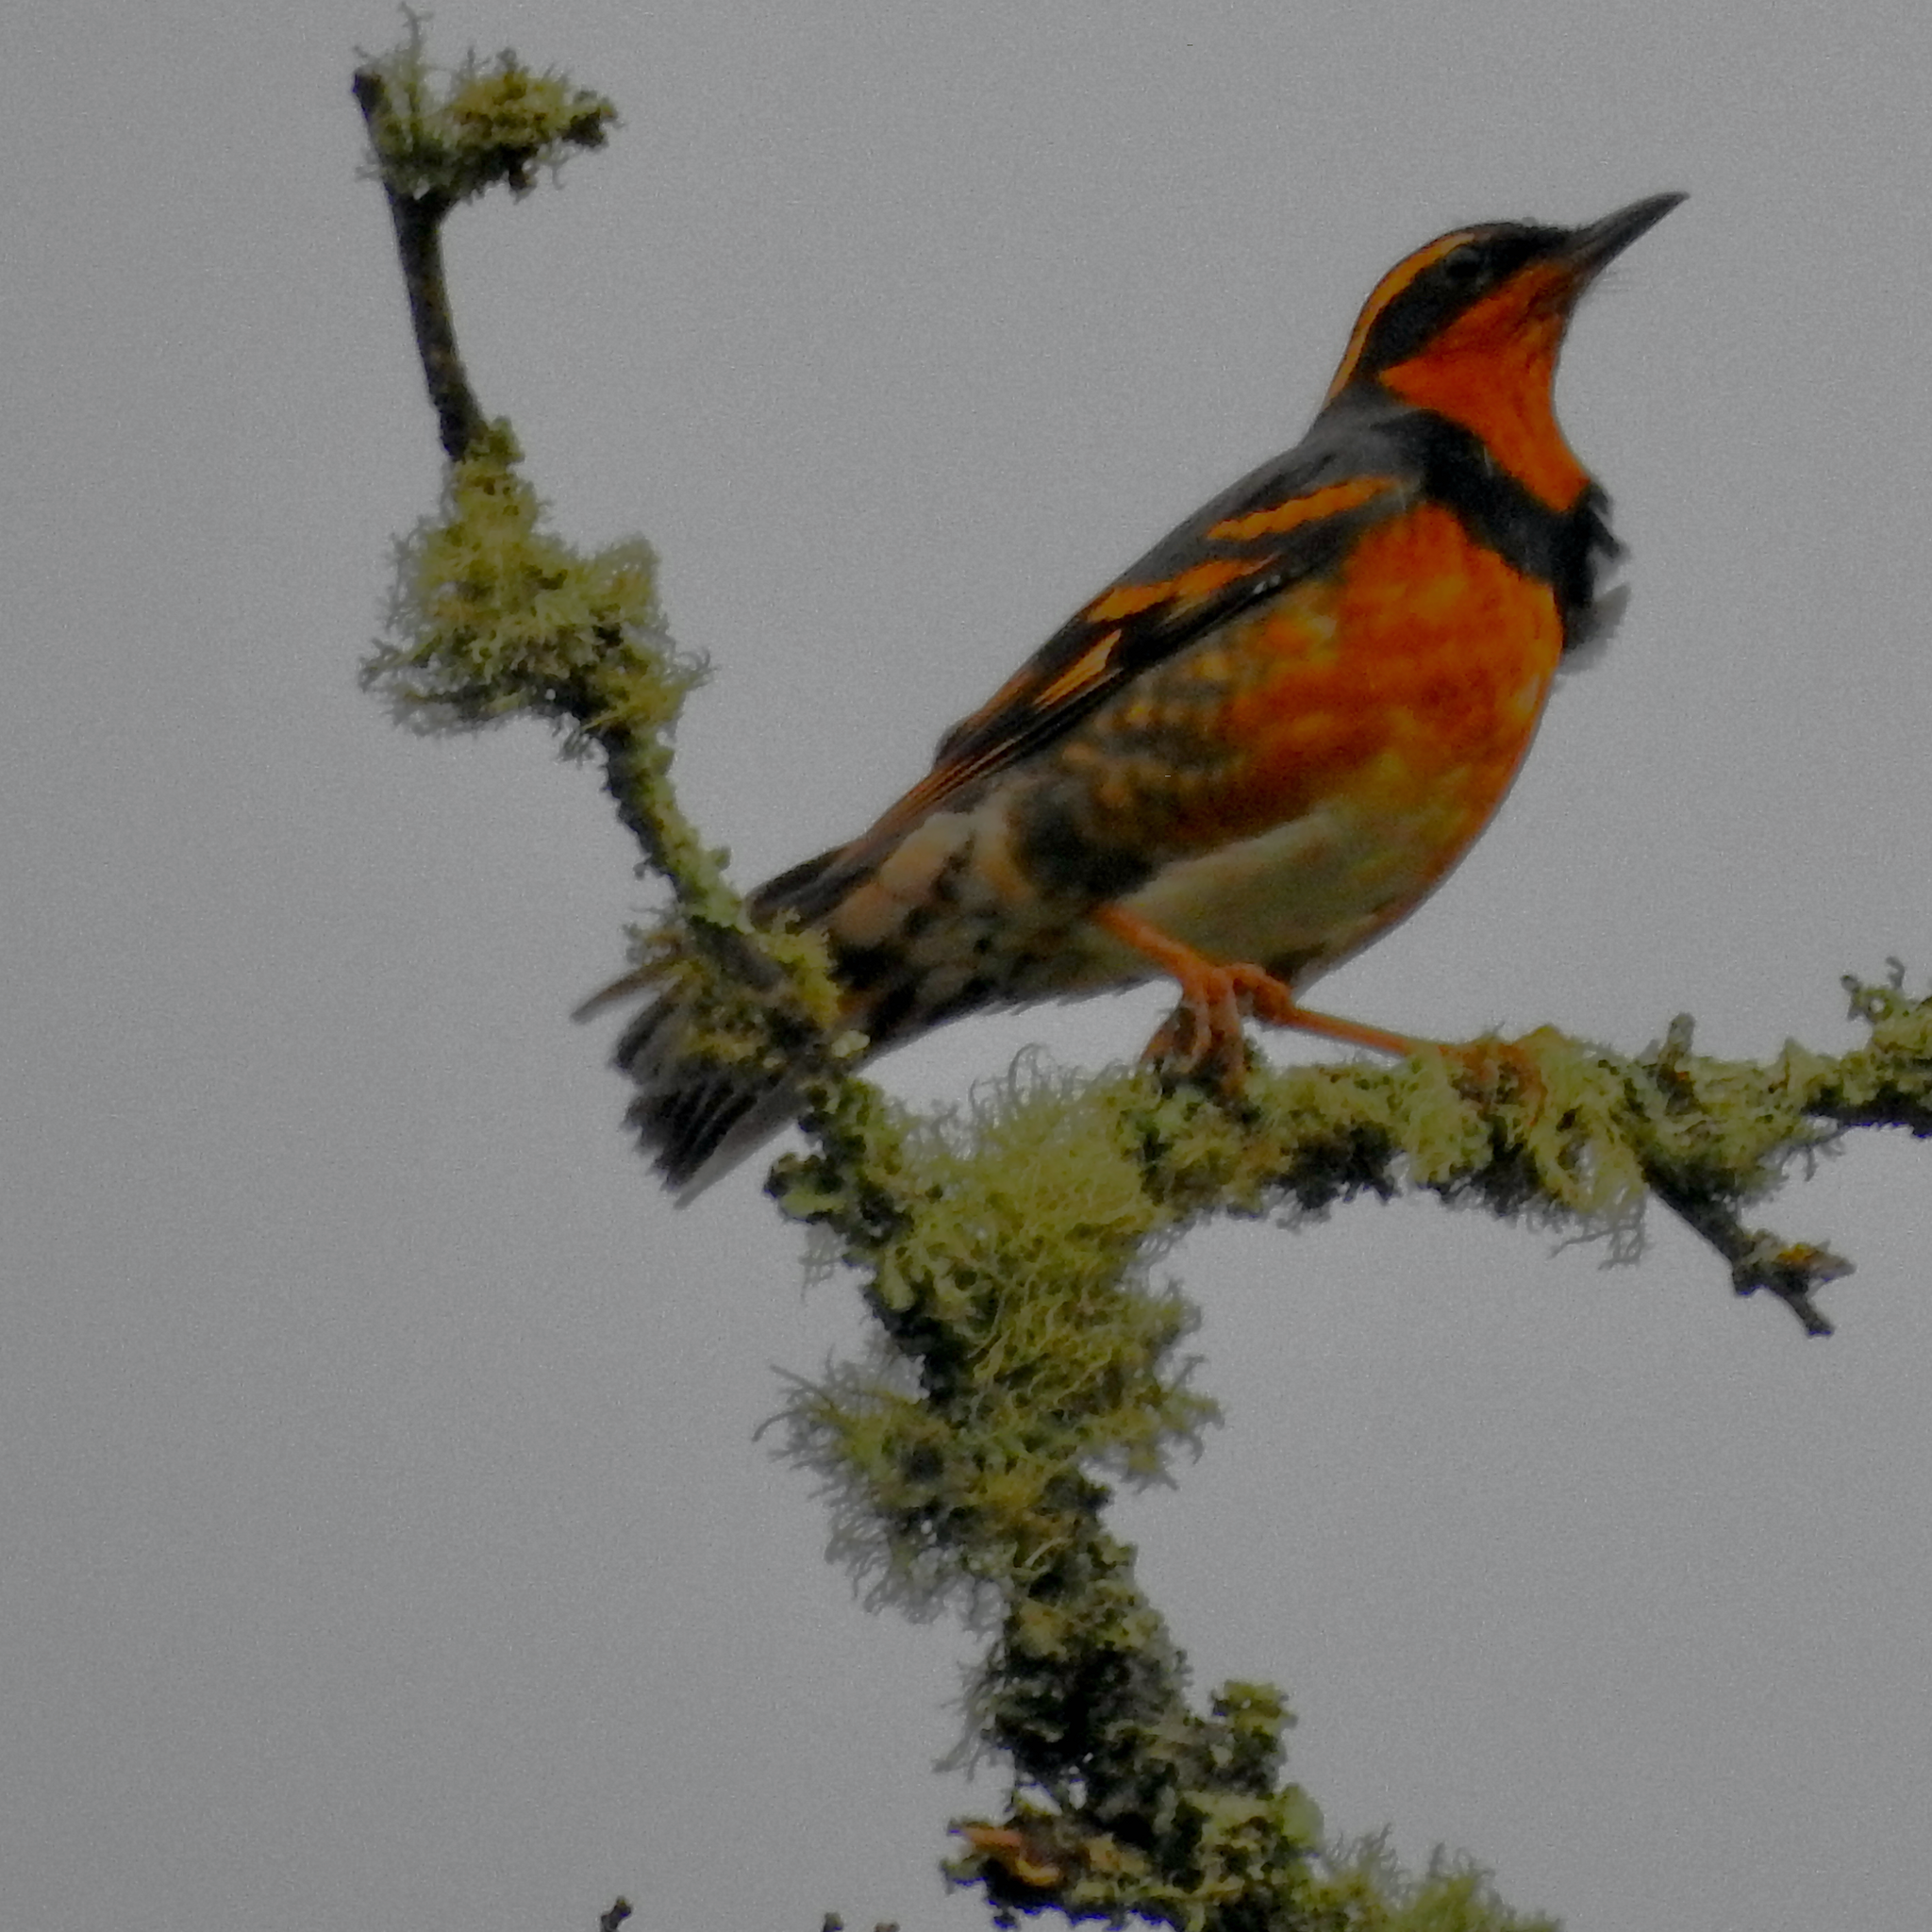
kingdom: Animalia
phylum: Chordata
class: Aves
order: Passeriformes
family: Turdidae
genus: Ixoreus
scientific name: Ixoreus naevius
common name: Varied thrush
